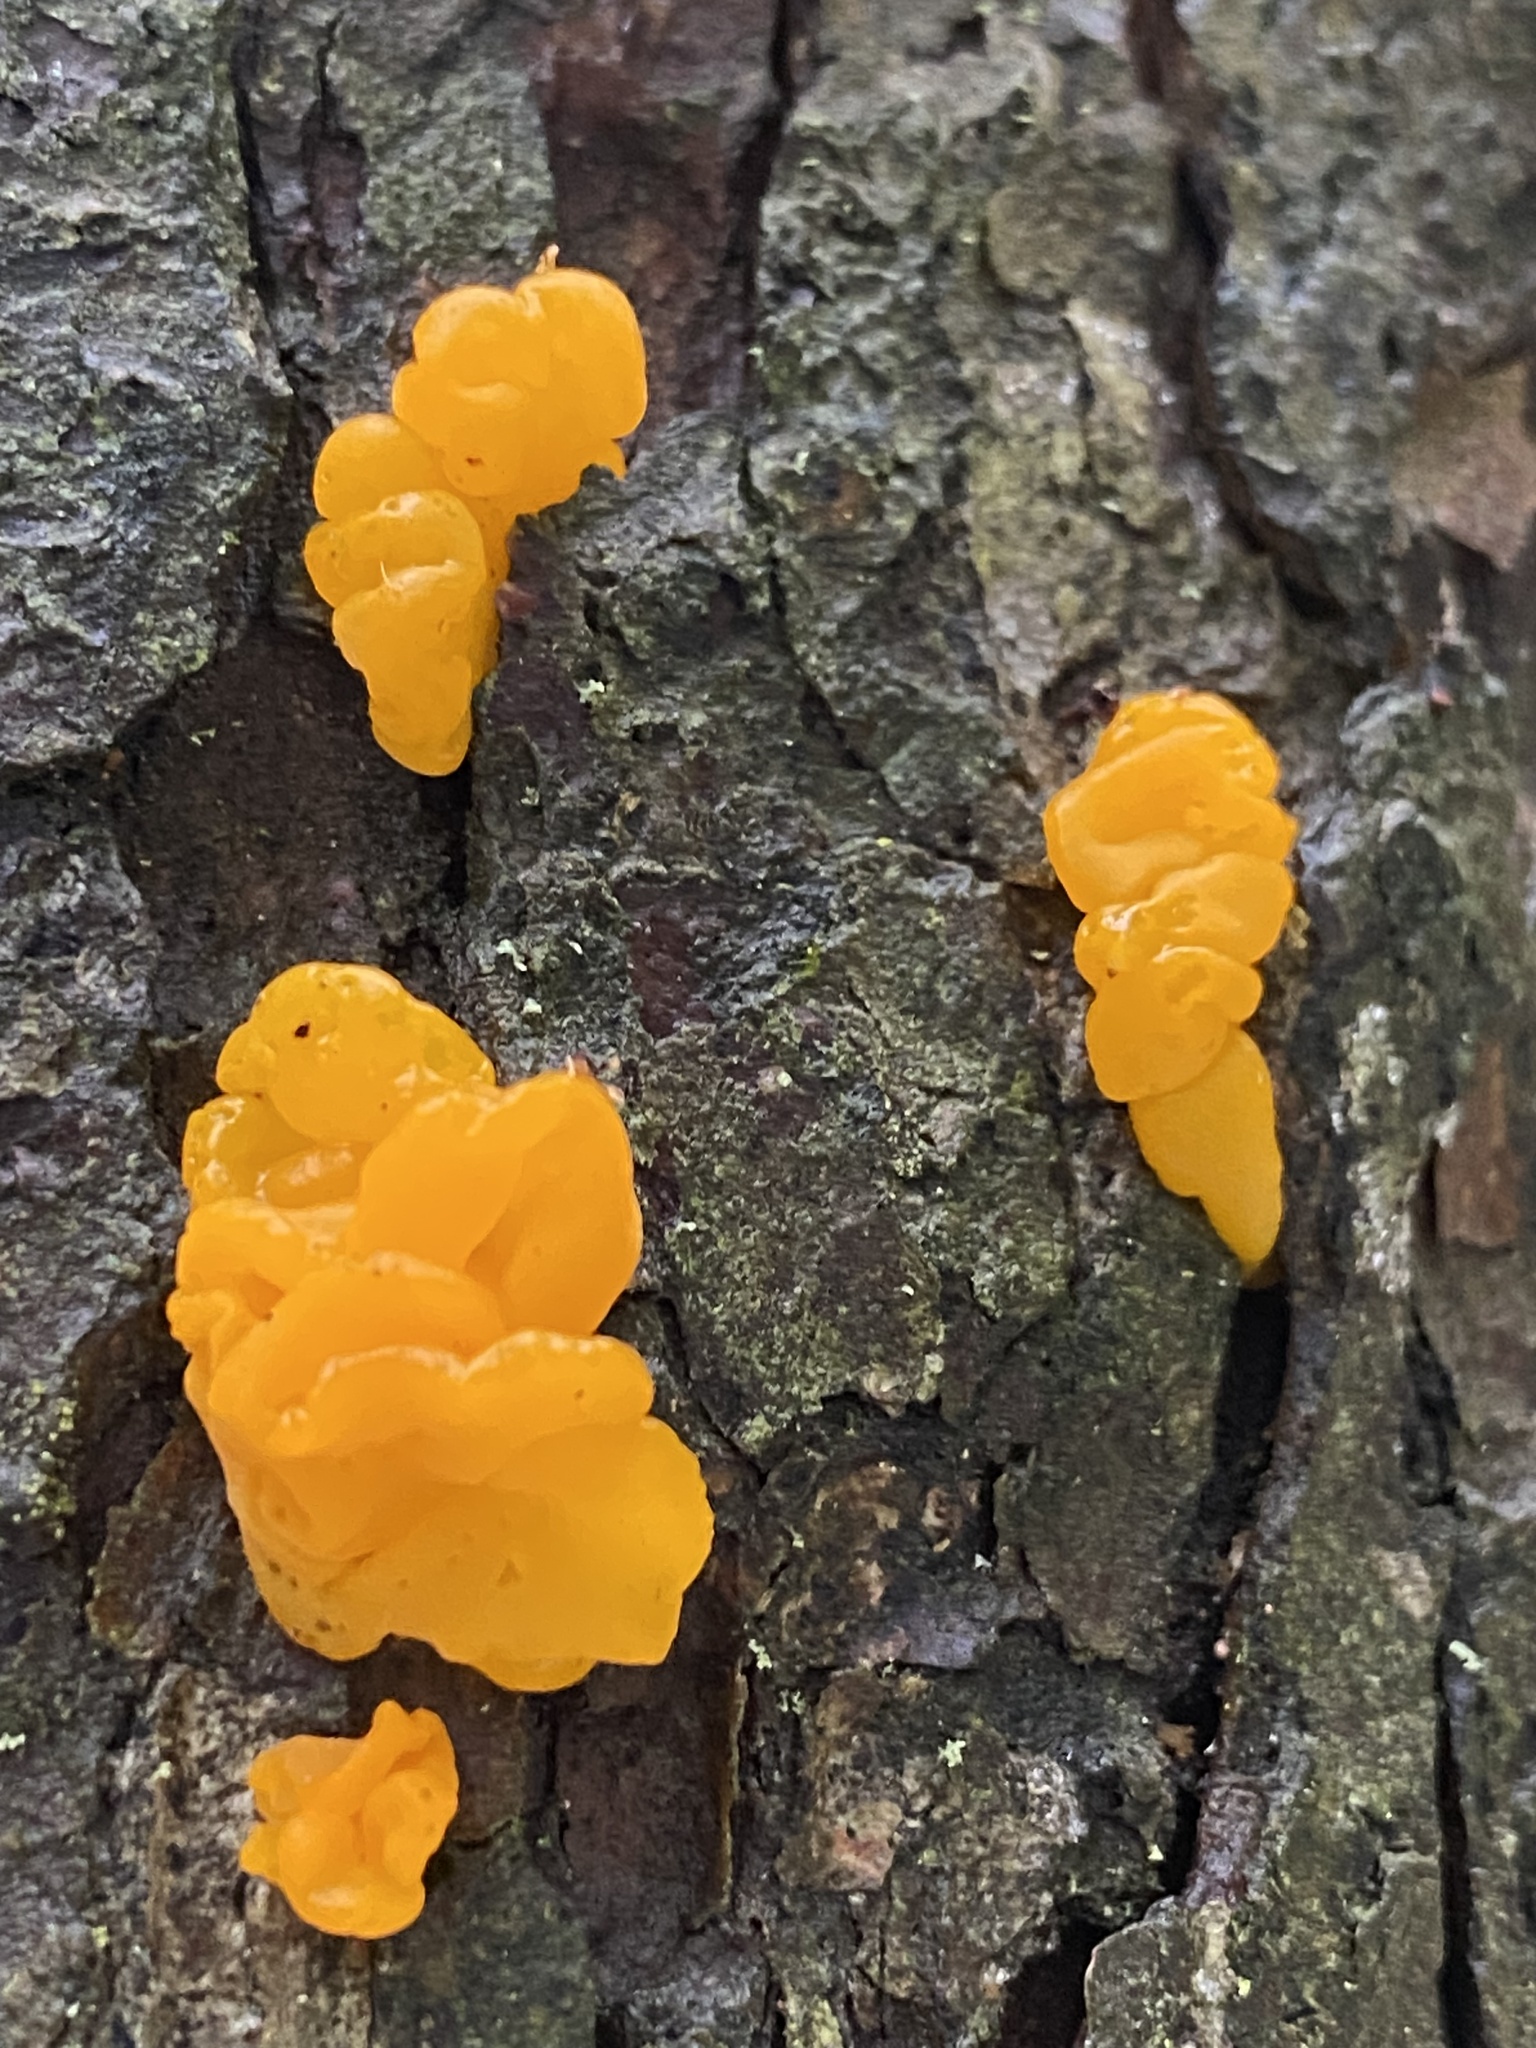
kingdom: Fungi
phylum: Basidiomycota
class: Dacrymycetes
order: Dacrymycetales
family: Dacrymycetaceae
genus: Dacrymyces
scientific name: Dacrymyces chrysospermus
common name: Orange jelly spot
